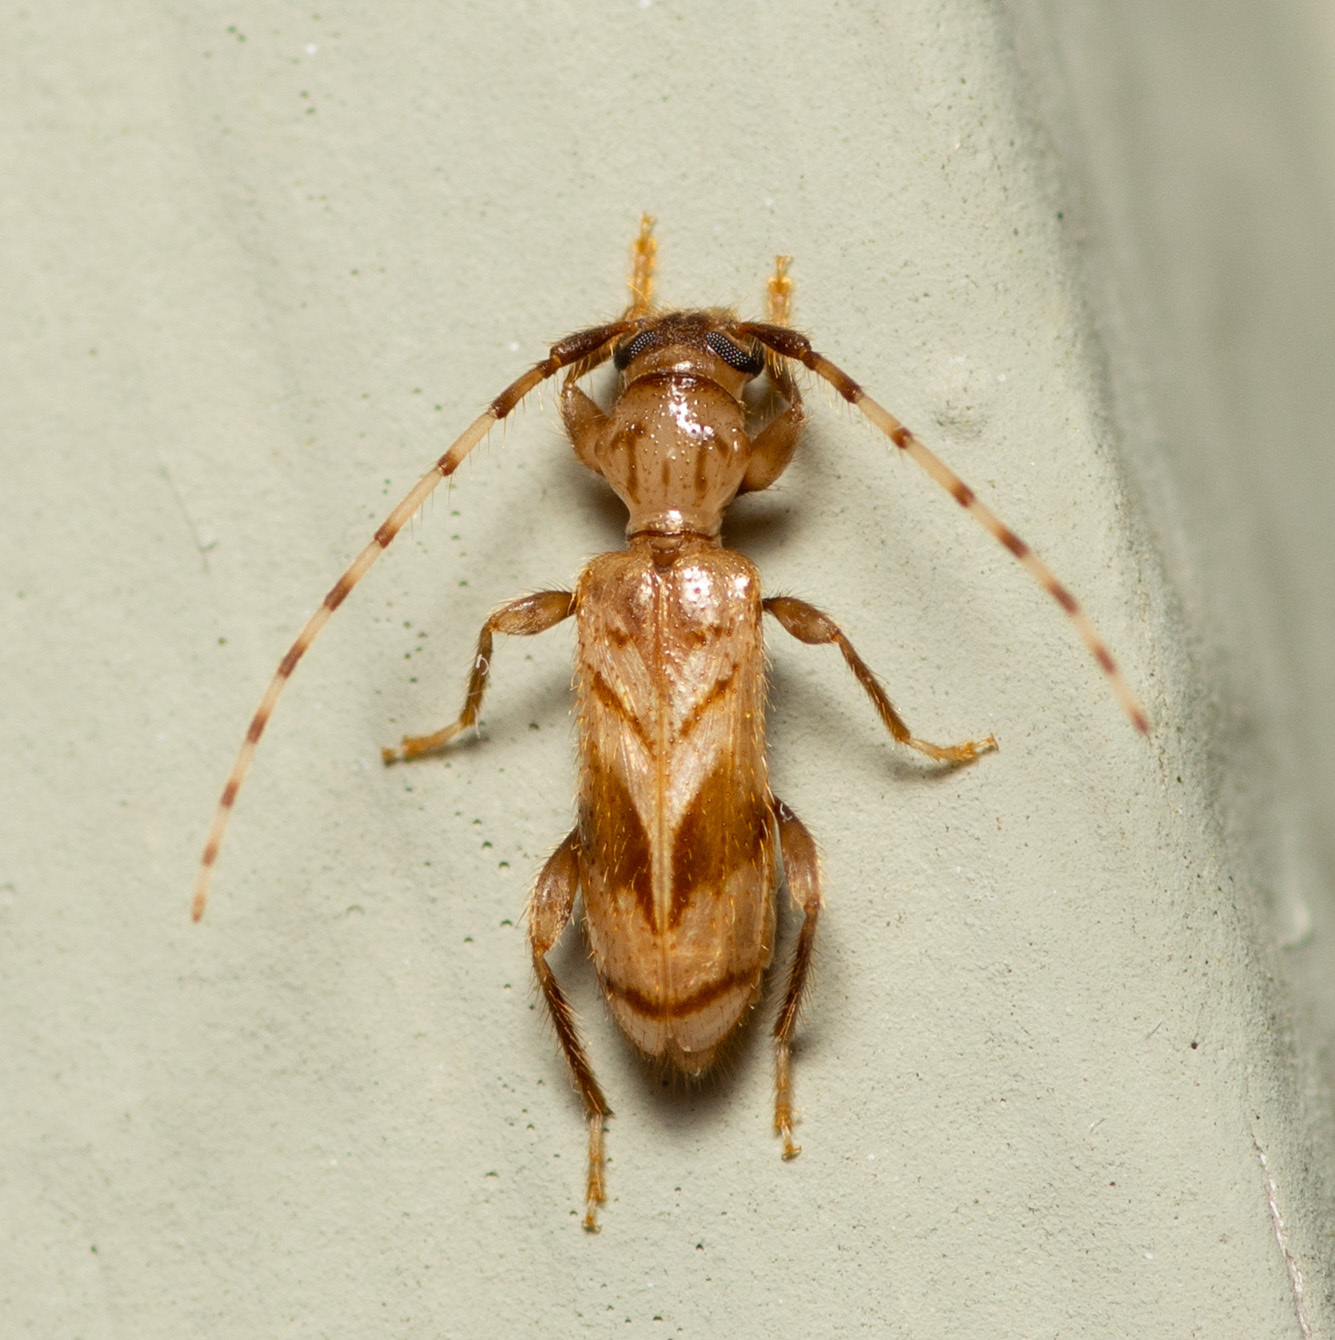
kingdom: Animalia
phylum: Arthropoda
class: Insecta
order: Coleoptera
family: Cerambycidae
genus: Obrium
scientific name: Obrium maculatum
